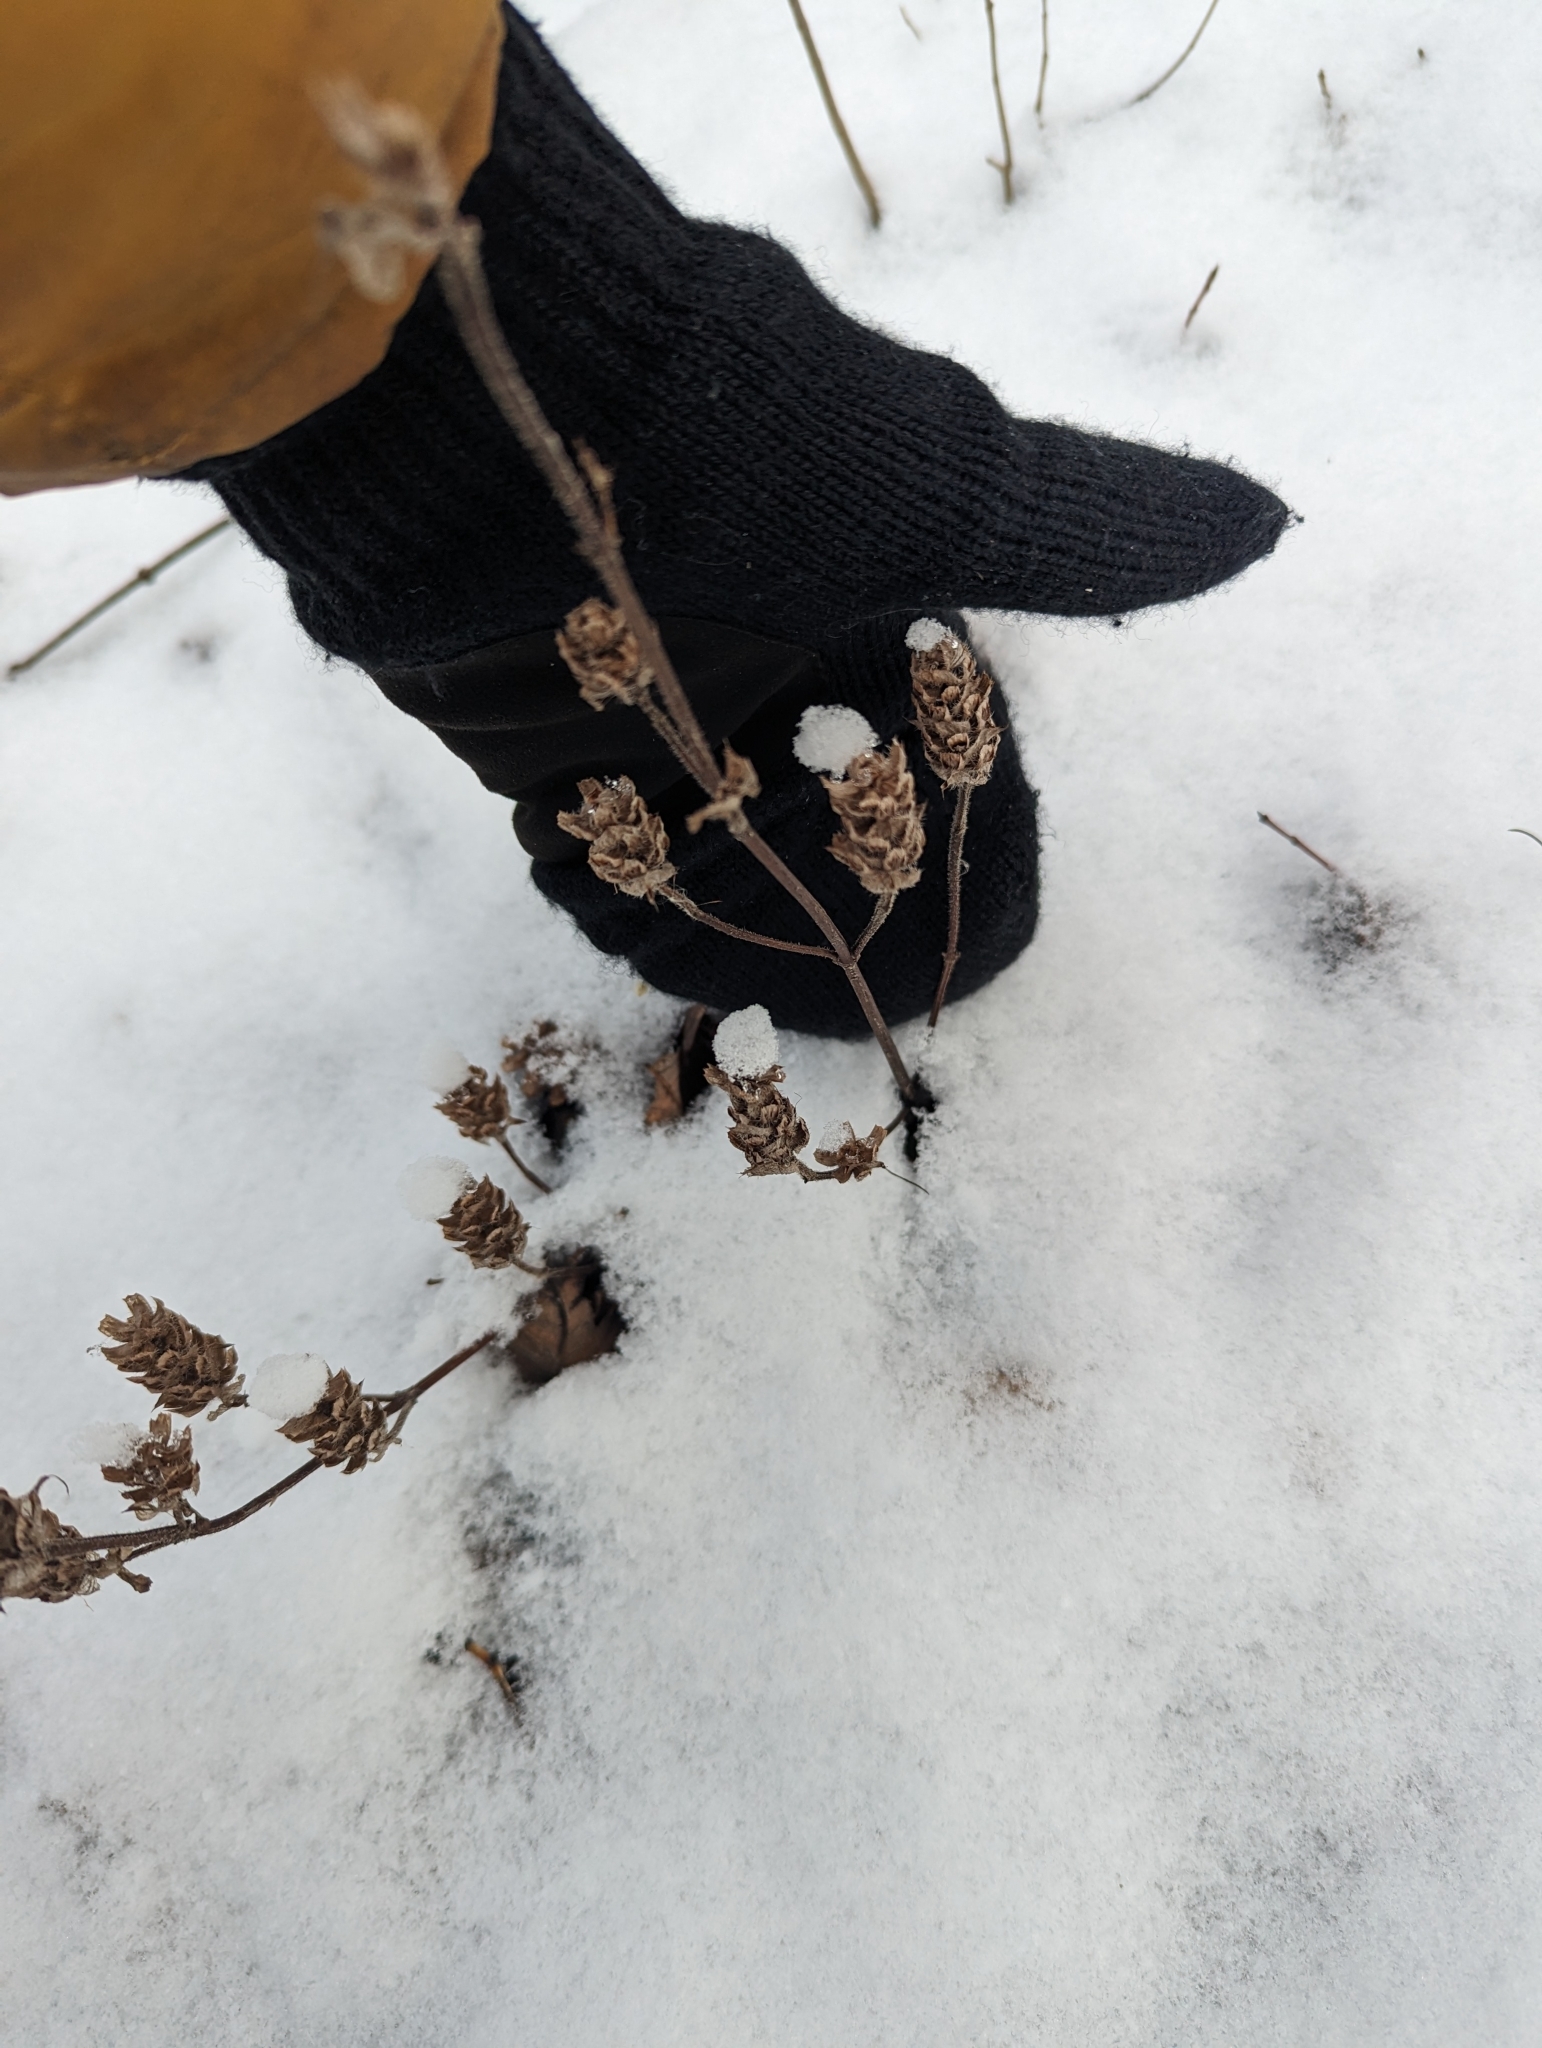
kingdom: Plantae
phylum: Tracheophyta
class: Magnoliopsida
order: Lamiales
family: Lamiaceae
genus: Prunella
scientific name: Prunella vulgaris
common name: Heal-all
